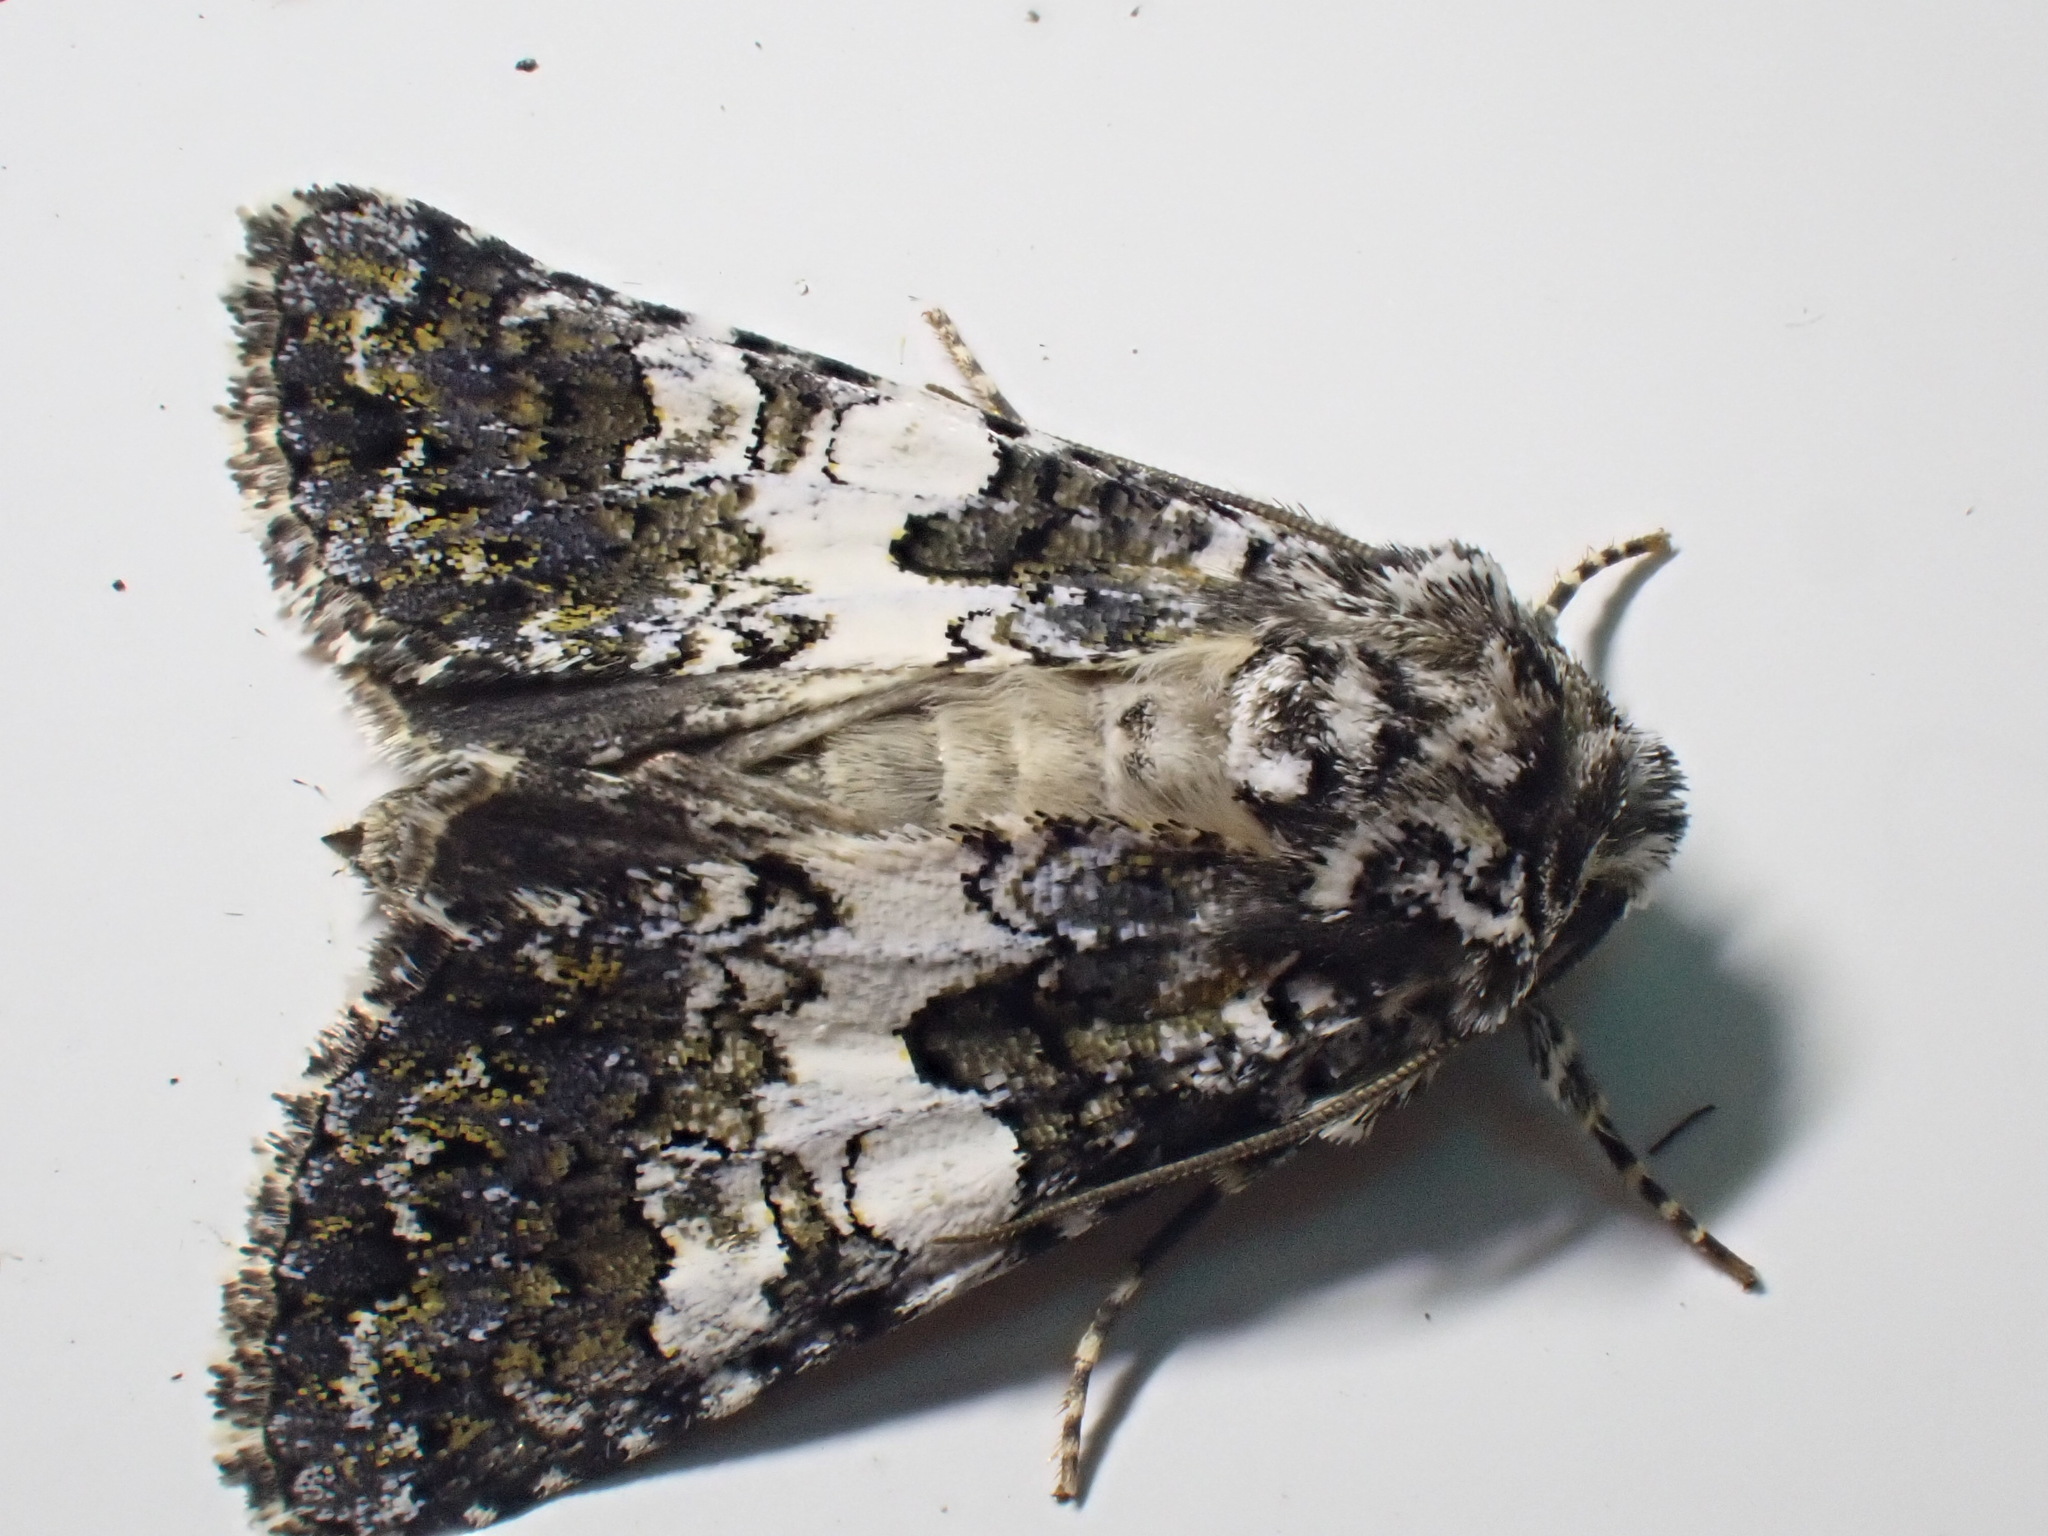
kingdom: Animalia
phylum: Arthropoda
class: Insecta
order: Lepidoptera
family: Noctuidae
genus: Hadena
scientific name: Hadena compta
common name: Varied coronet
